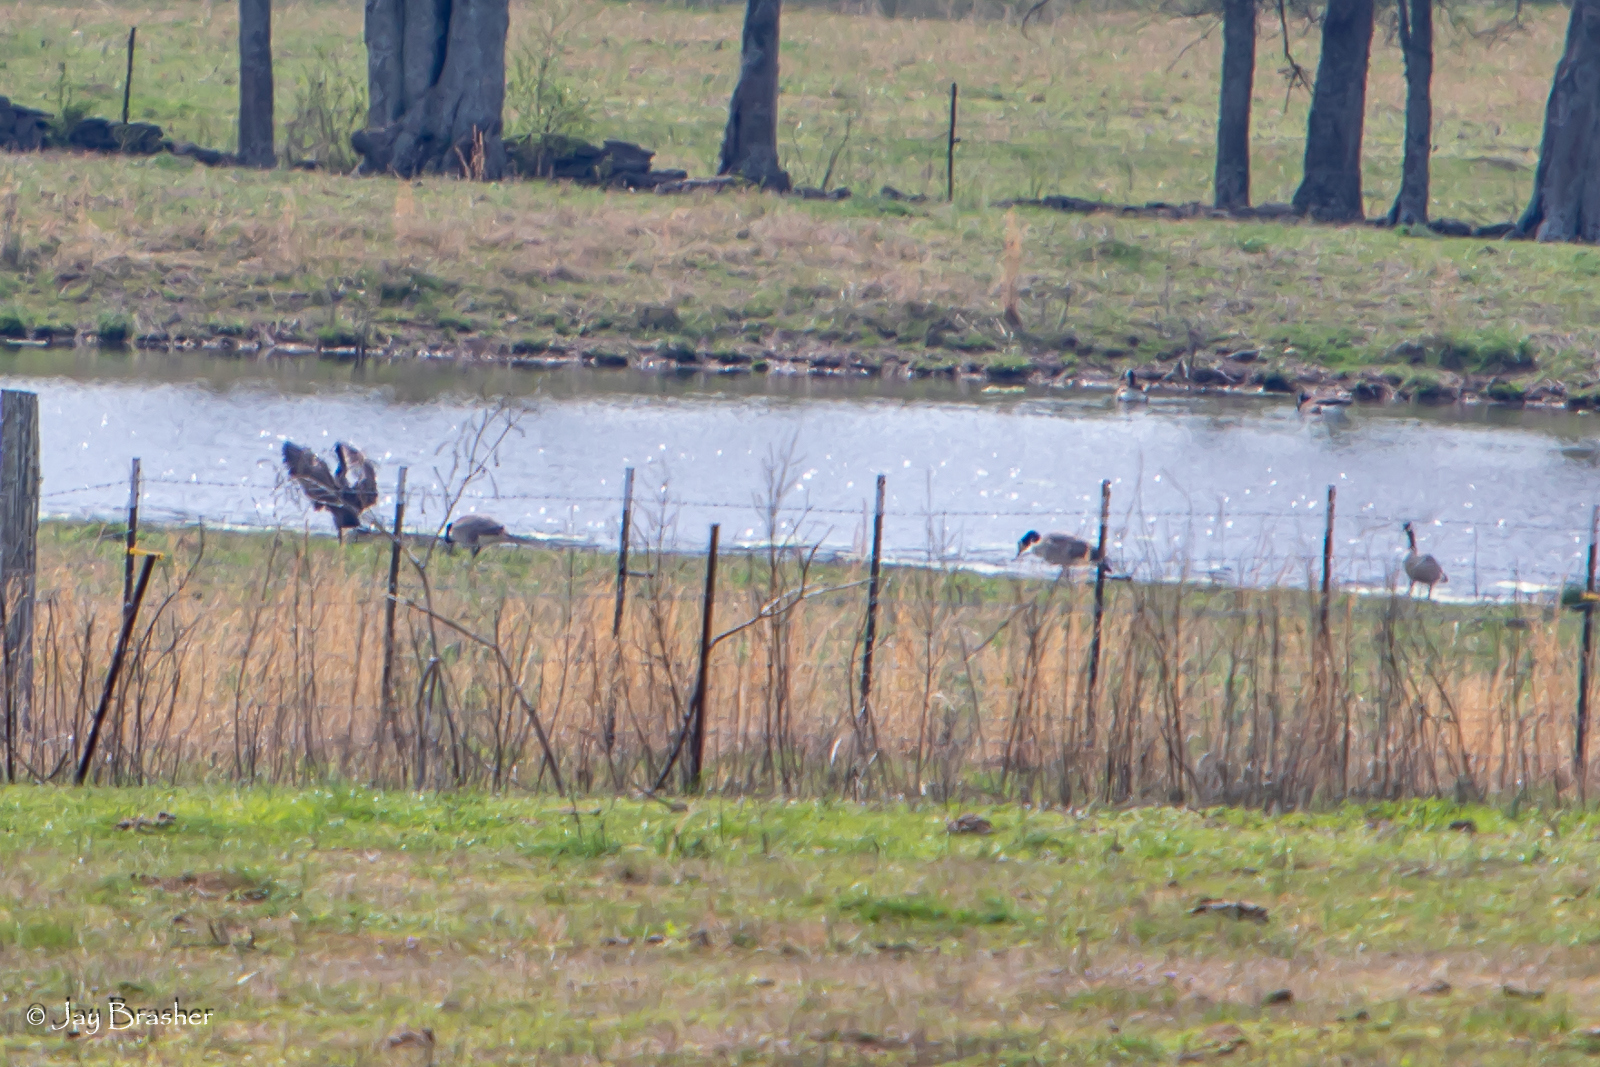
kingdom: Animalia
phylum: Chordata
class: Aves
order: Anseriformes
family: Anatidae
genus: Branta
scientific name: Branta canadensis
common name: Canada goose
